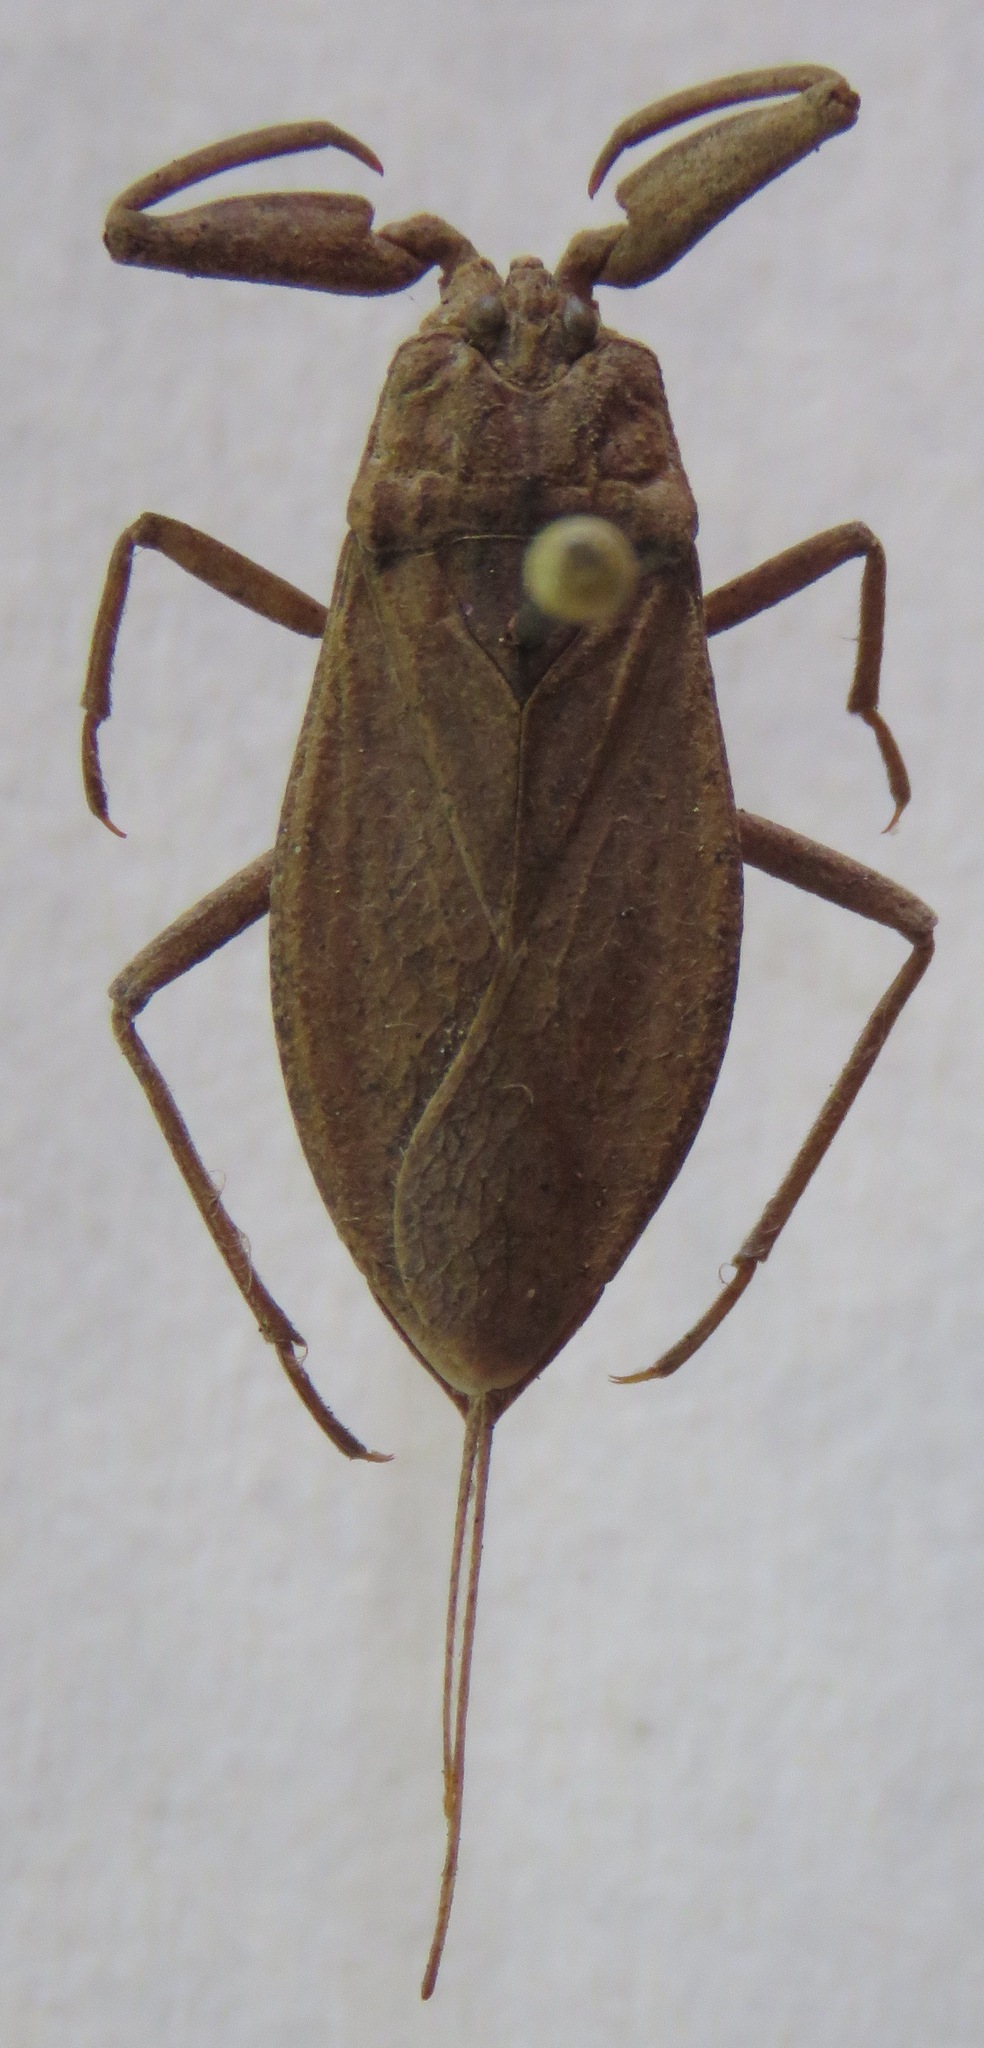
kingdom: Animalia
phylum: Arthropoda
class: Insecta
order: Hemiptera
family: Nepidae
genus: Nepa
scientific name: Nepa cinerea
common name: Water scorpion
